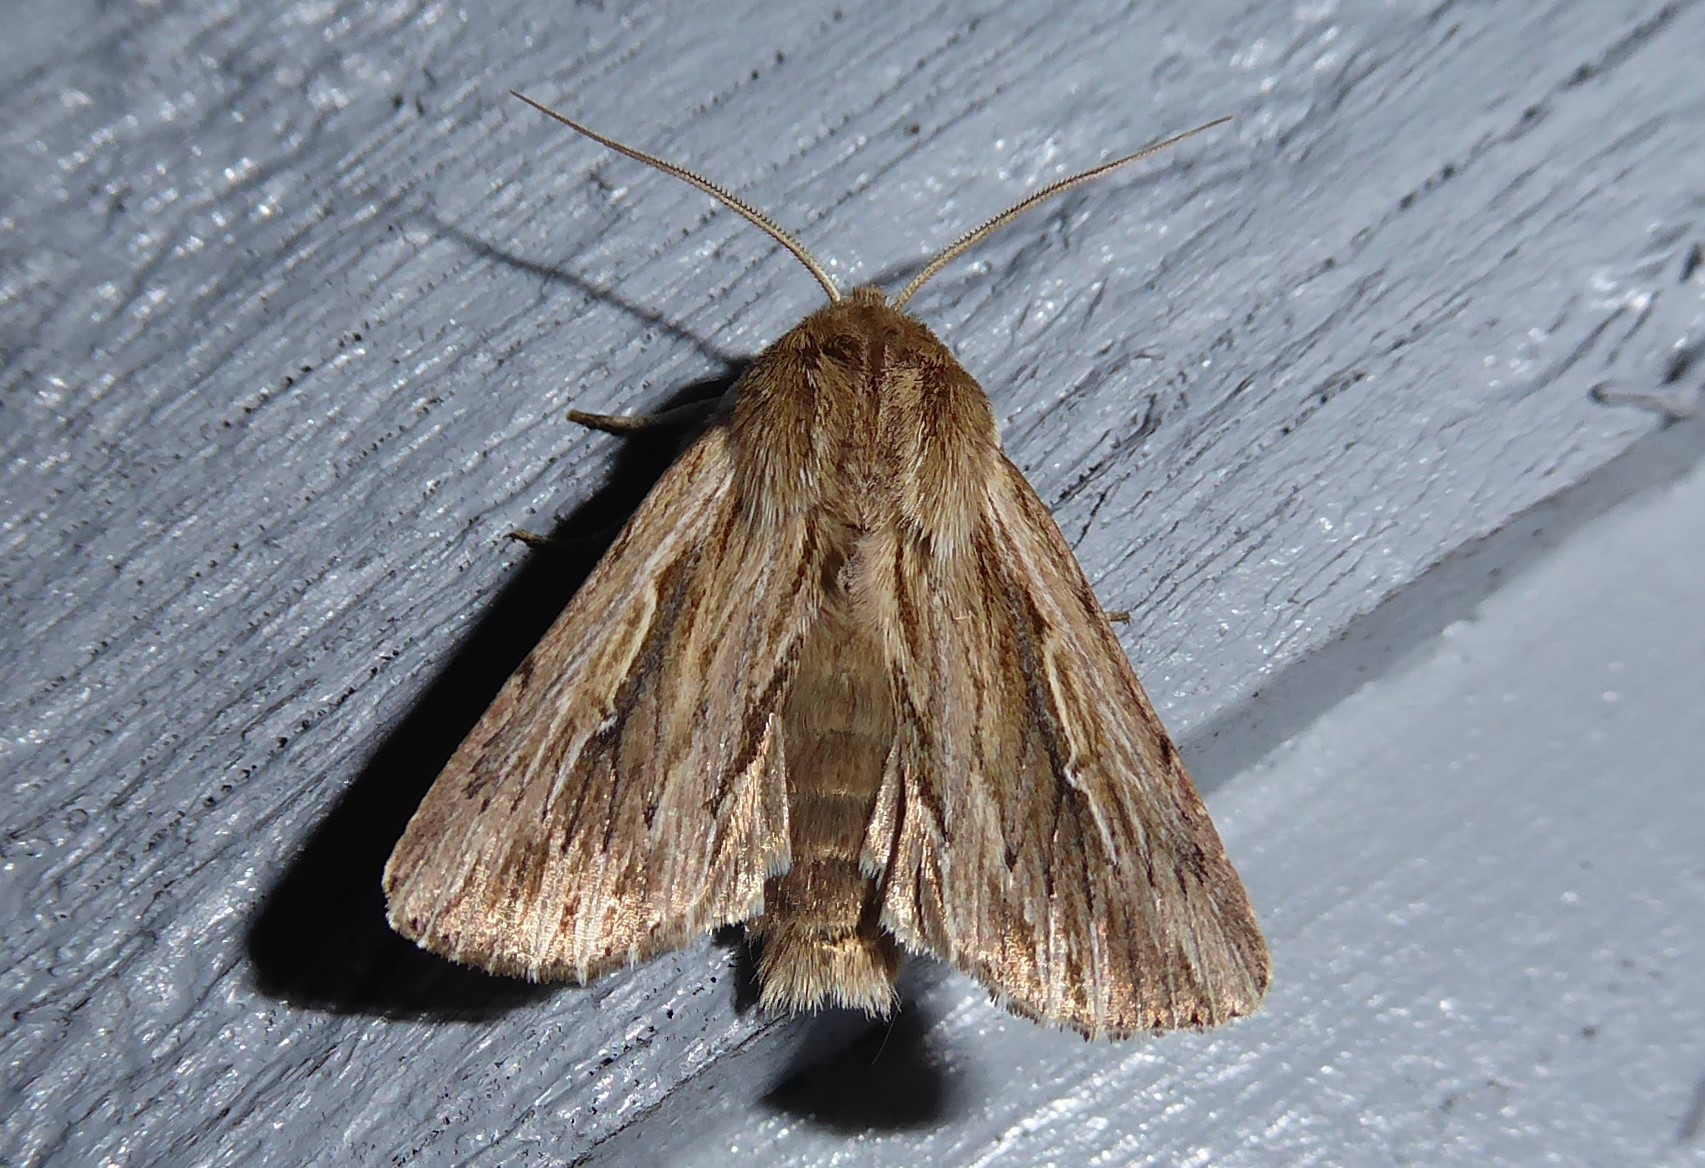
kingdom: Animalia
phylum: Arthropoda
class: Insecta
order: Lepidoptera
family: Noctuidae
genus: Persectania
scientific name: Persectania aversa
